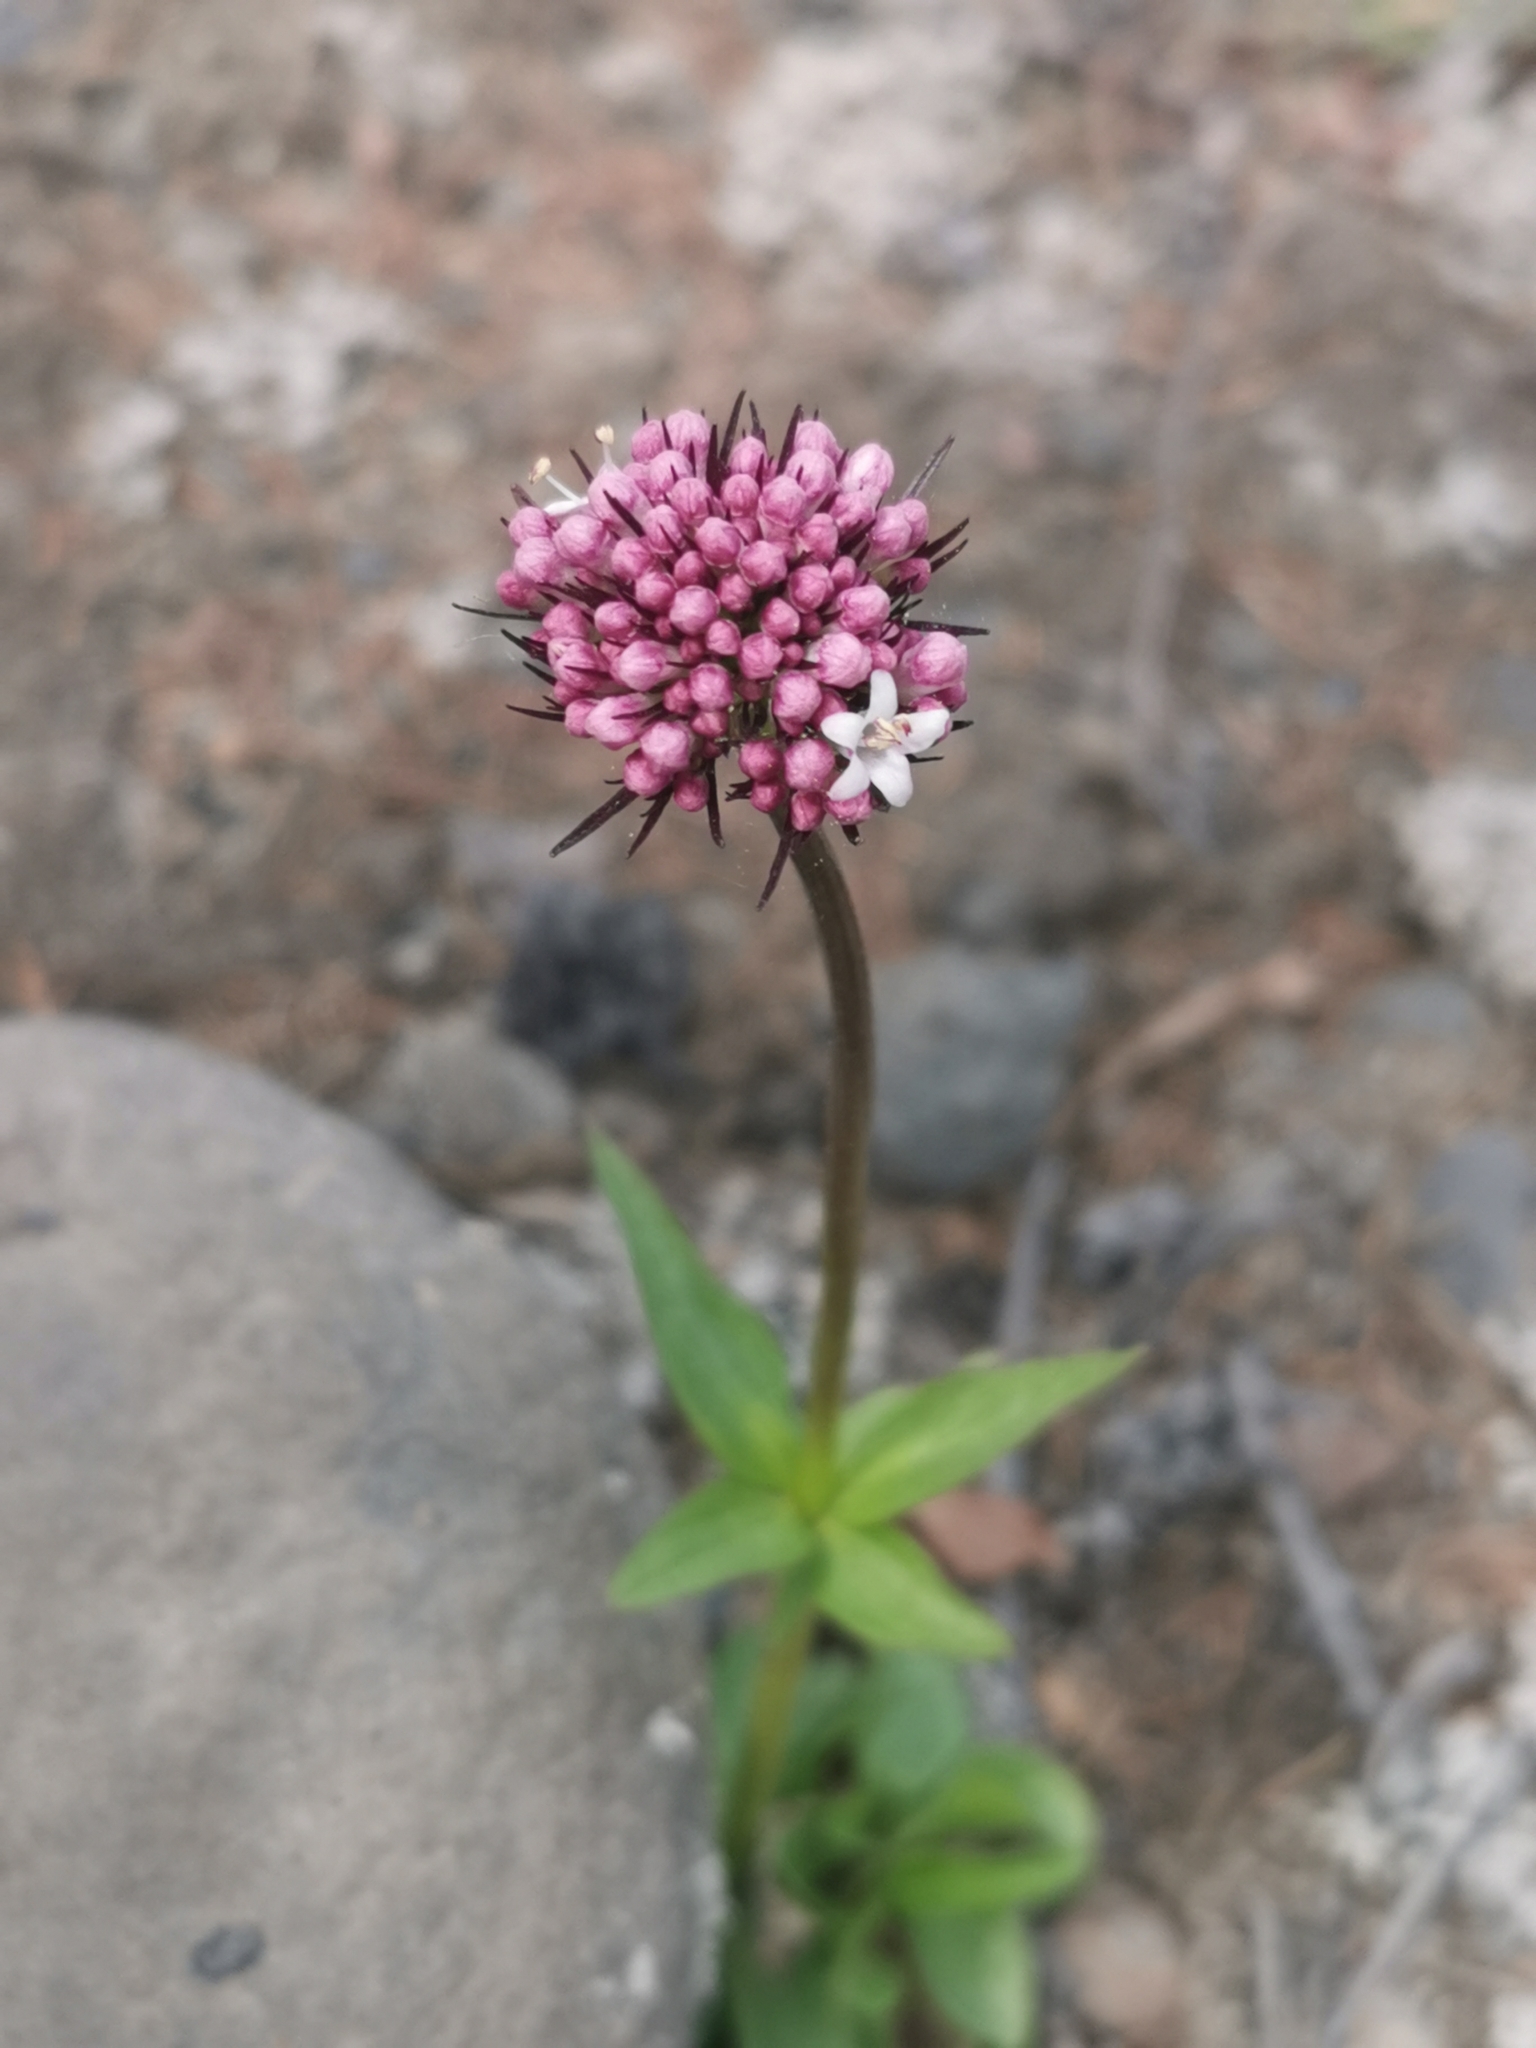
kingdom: Plantae
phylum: Tracheophyta
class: Magnoliopsida
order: Dipsacales
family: Caprifoliaceae
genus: Valeriana
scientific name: Valeriana capitata
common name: Capitate valerian
